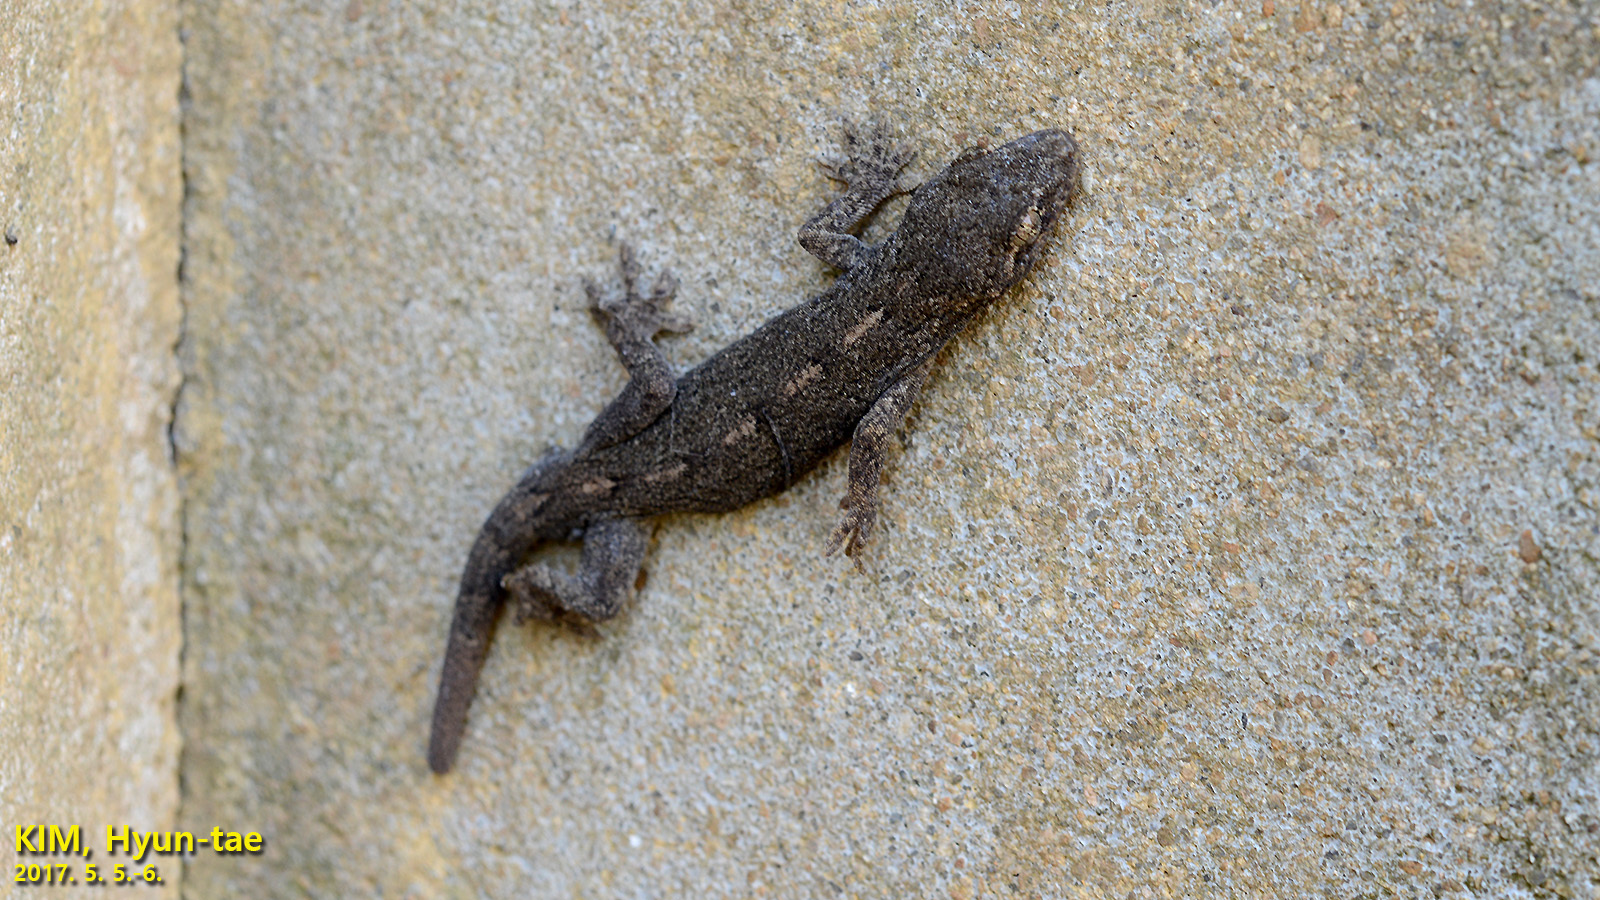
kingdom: Animalia
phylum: Chordata
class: Squamata
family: Gekkonidae
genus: Gekko
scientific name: Gekko japonicus
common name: Schlegel's japanese gecko
